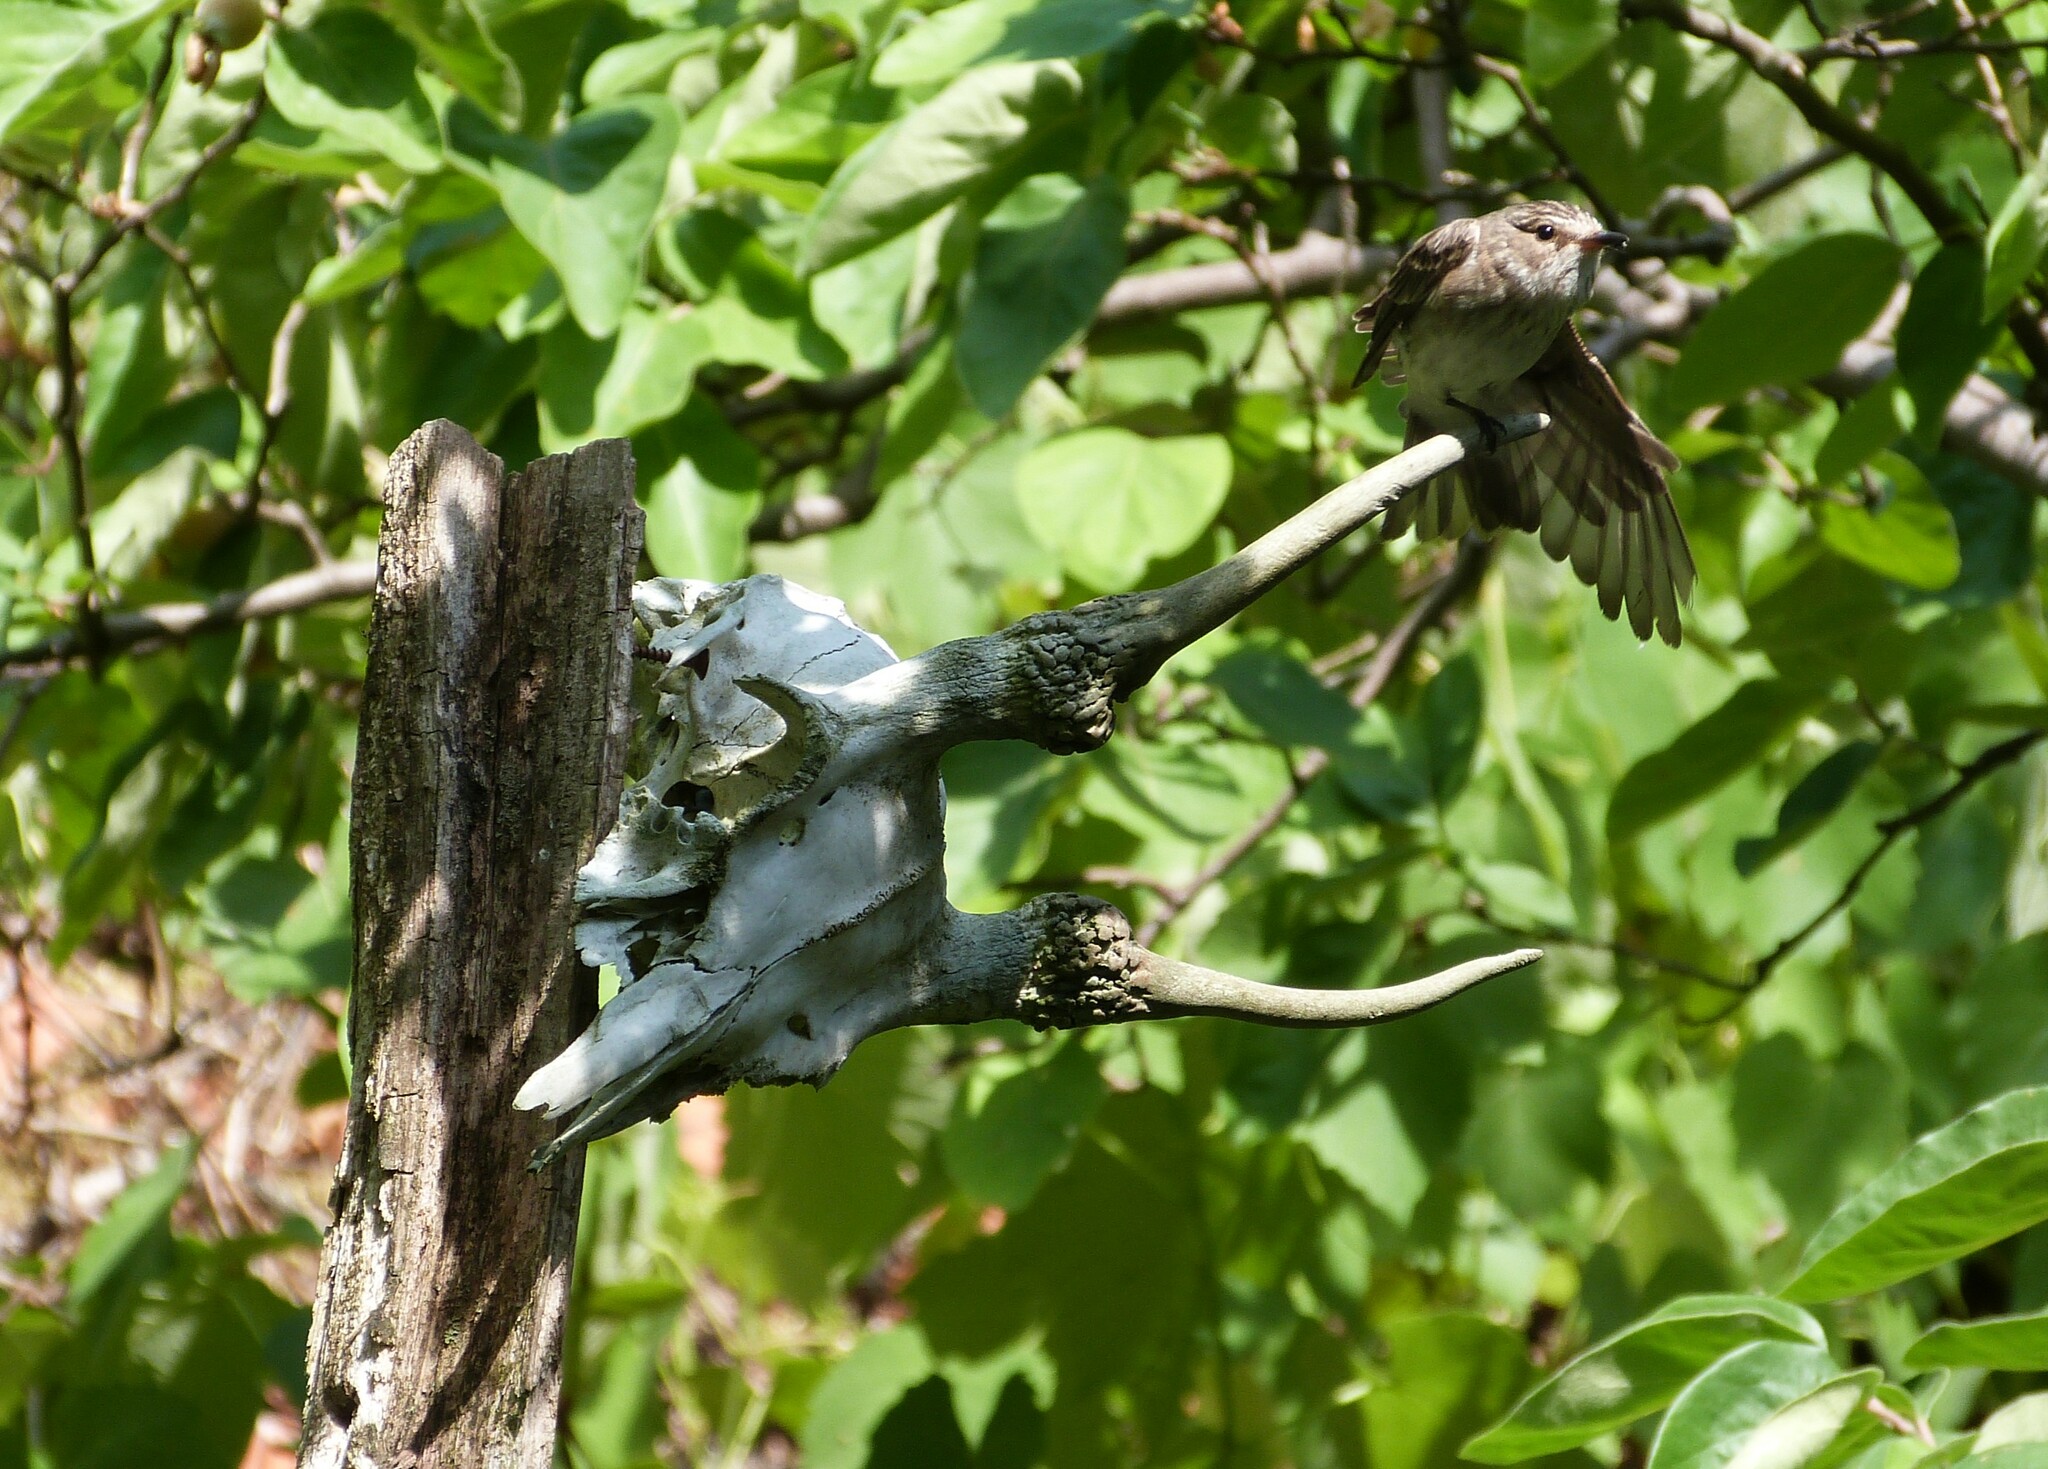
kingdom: Animalia
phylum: Chordata
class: Aves
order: Passeriformes
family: Muscicapidae
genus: Muscicapa
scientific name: Muscicapa striata
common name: Spotted flycatcher
